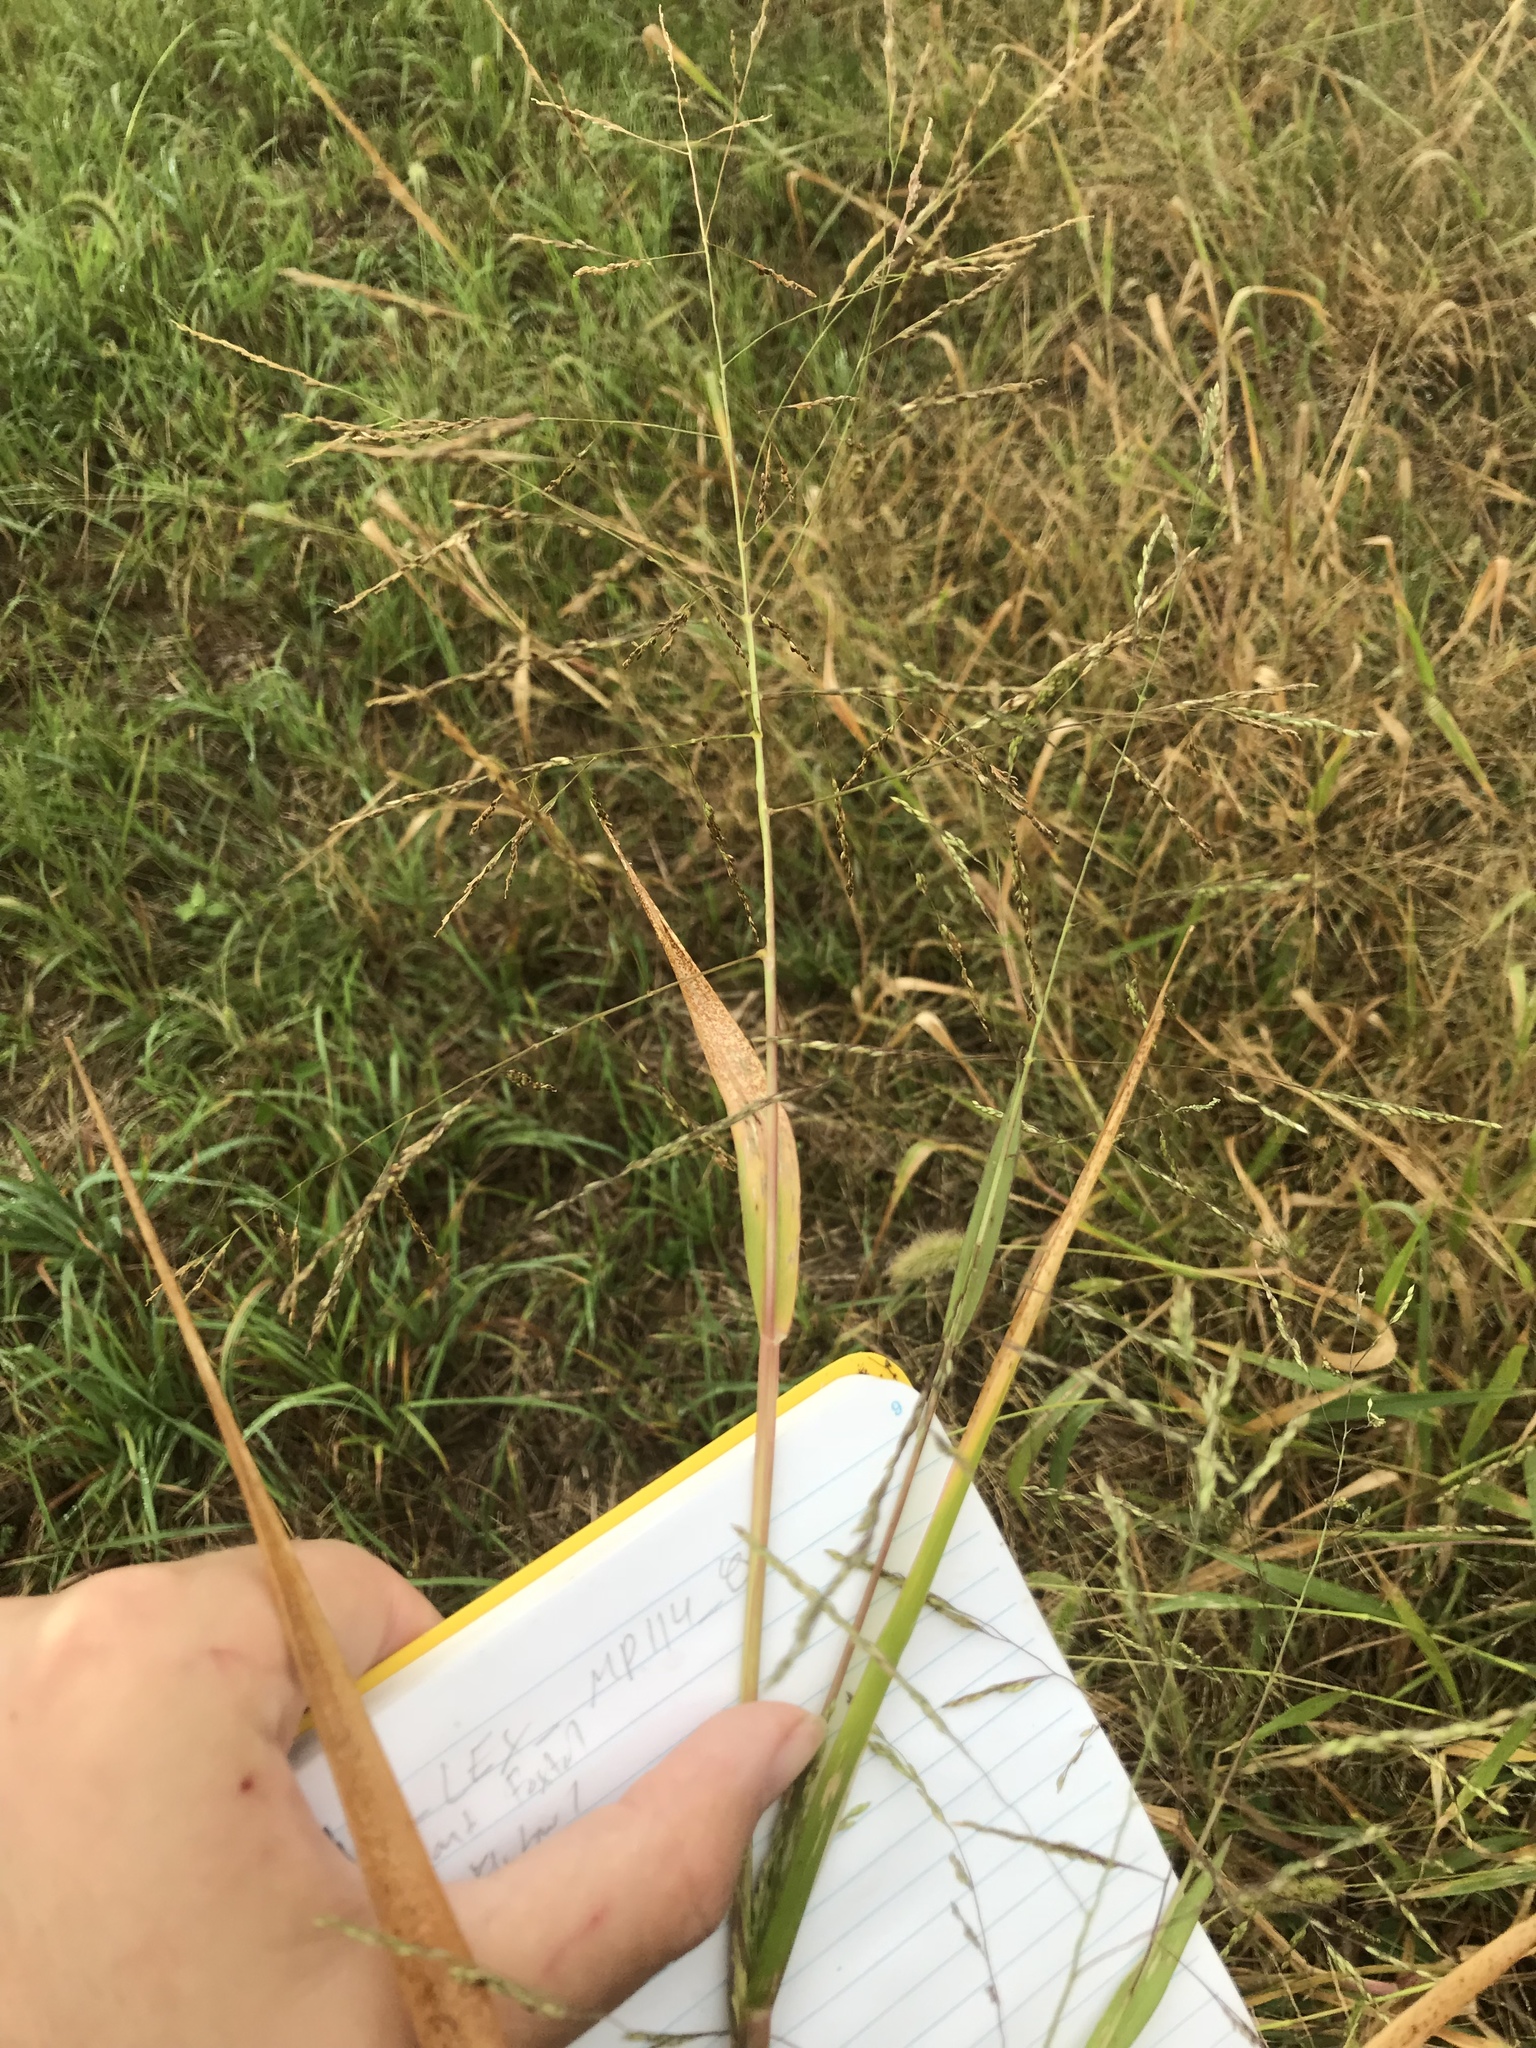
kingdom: Plantae
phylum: Tracheophyta
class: Liliopsida
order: Poales
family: Poaceae
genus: Panicum
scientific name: Panicum dichotomiflorum
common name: Autumn millet
